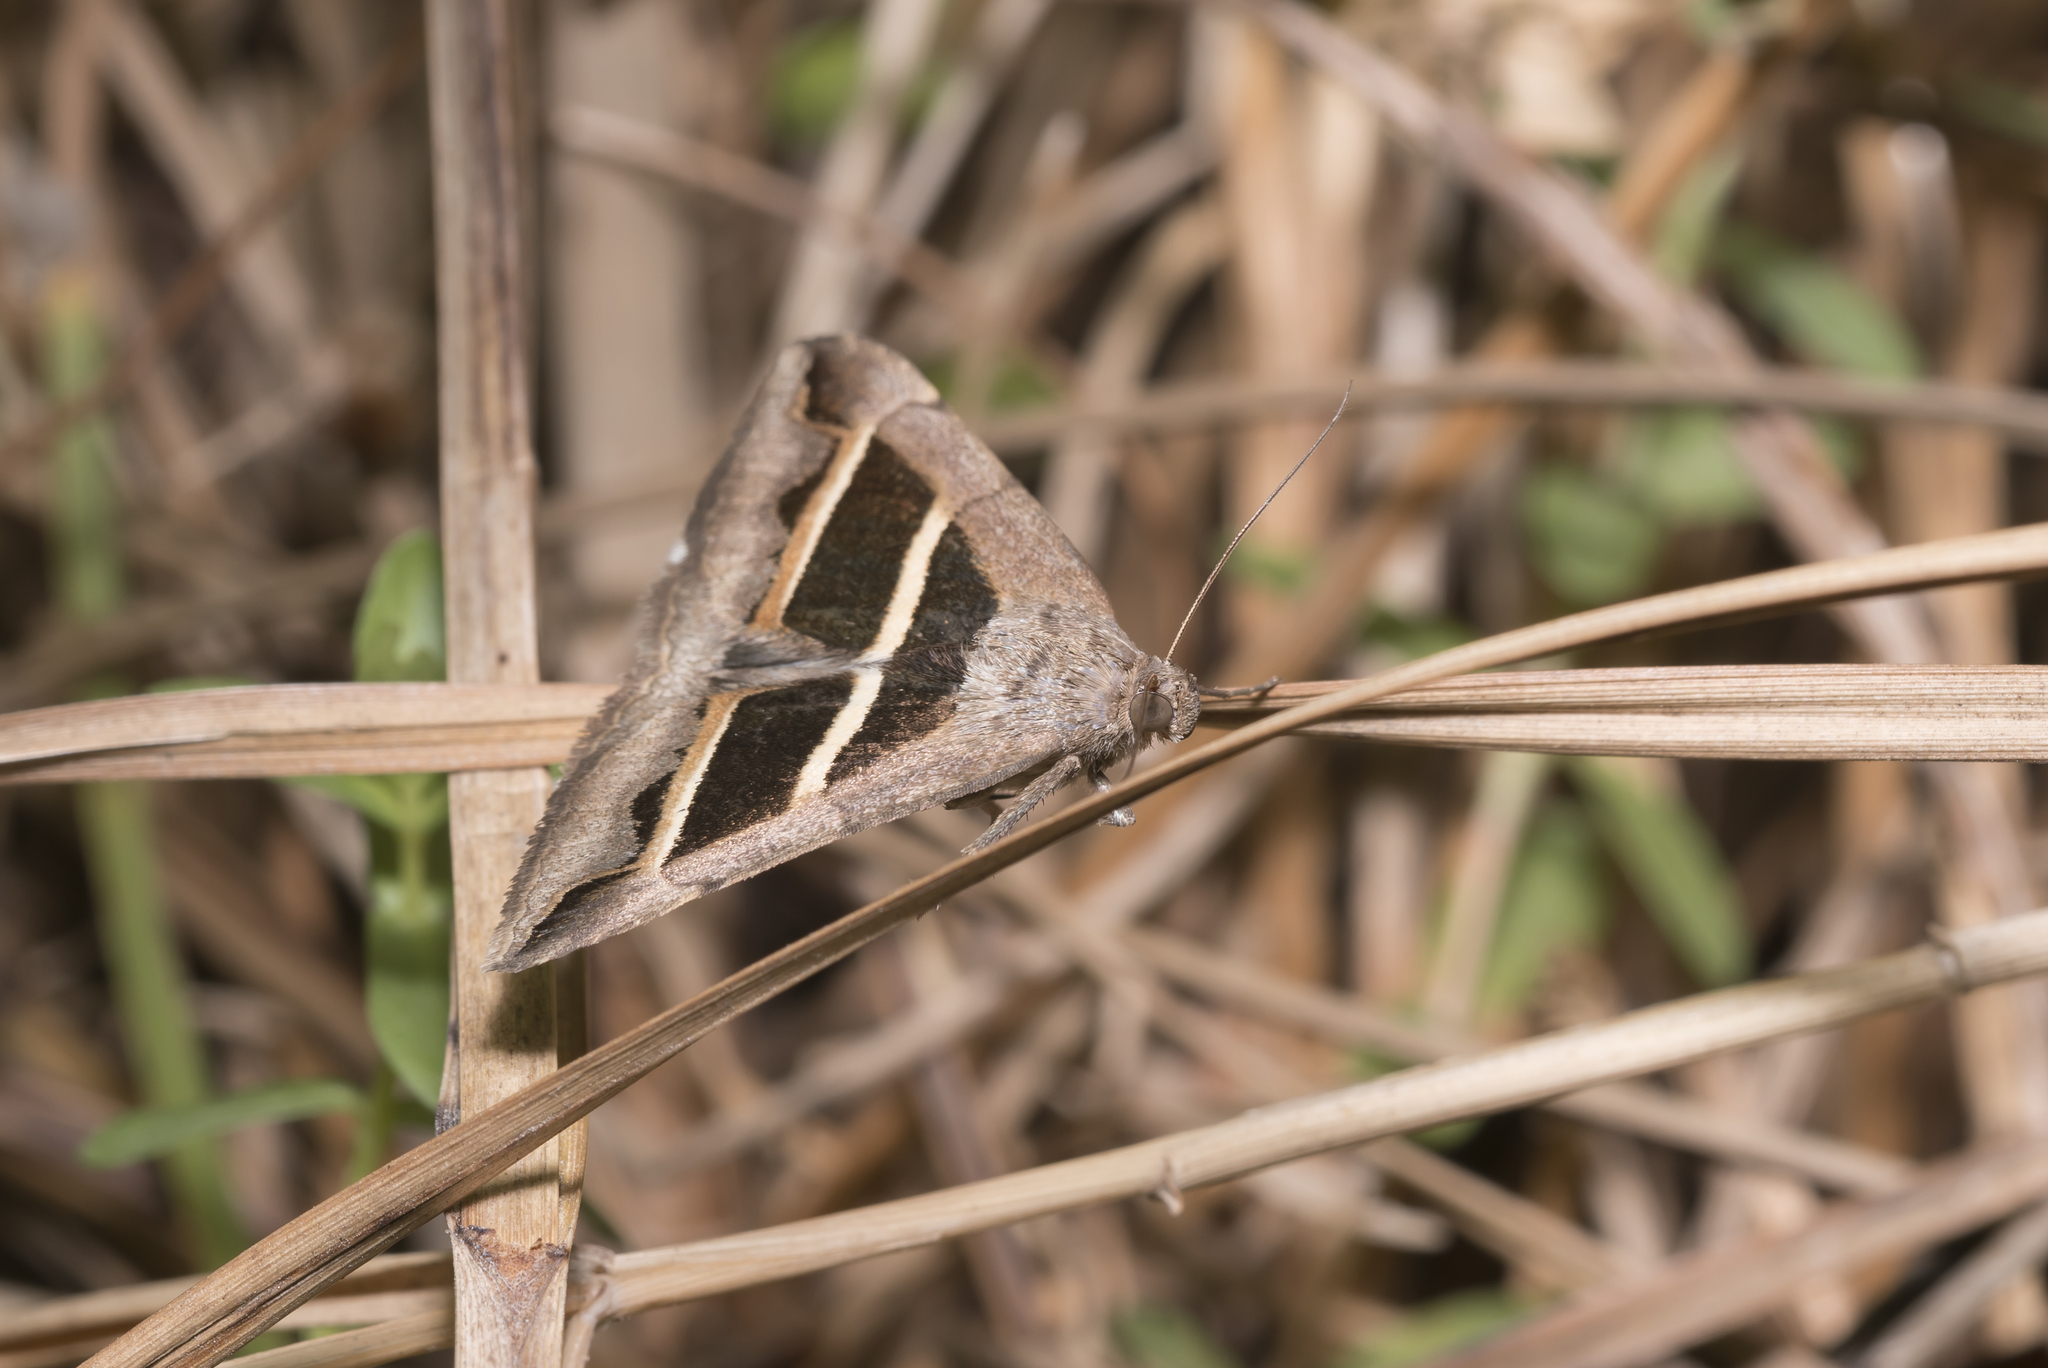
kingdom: Animalia
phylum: Arthropoda
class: Insecta
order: Lepidoptera
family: Erebidae
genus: Grammodes
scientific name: Grammodes bifasciata
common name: Parallel lines
